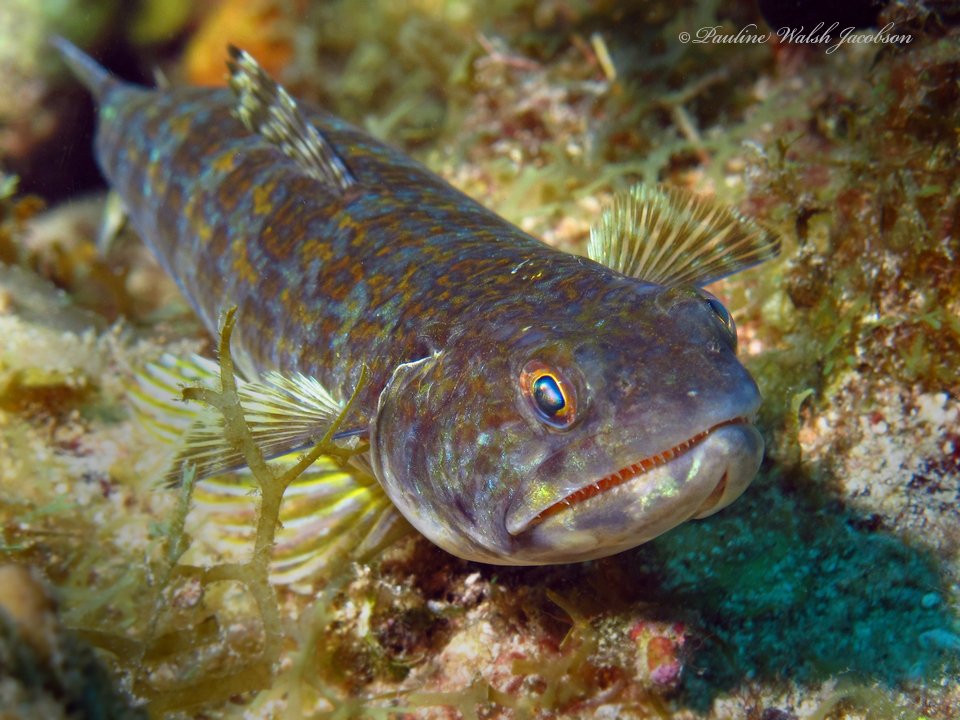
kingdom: Animalia
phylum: Chordata
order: Aulopiformes
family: Synodontidae
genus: Synodus
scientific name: Synodus intermedius
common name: Sand diver
